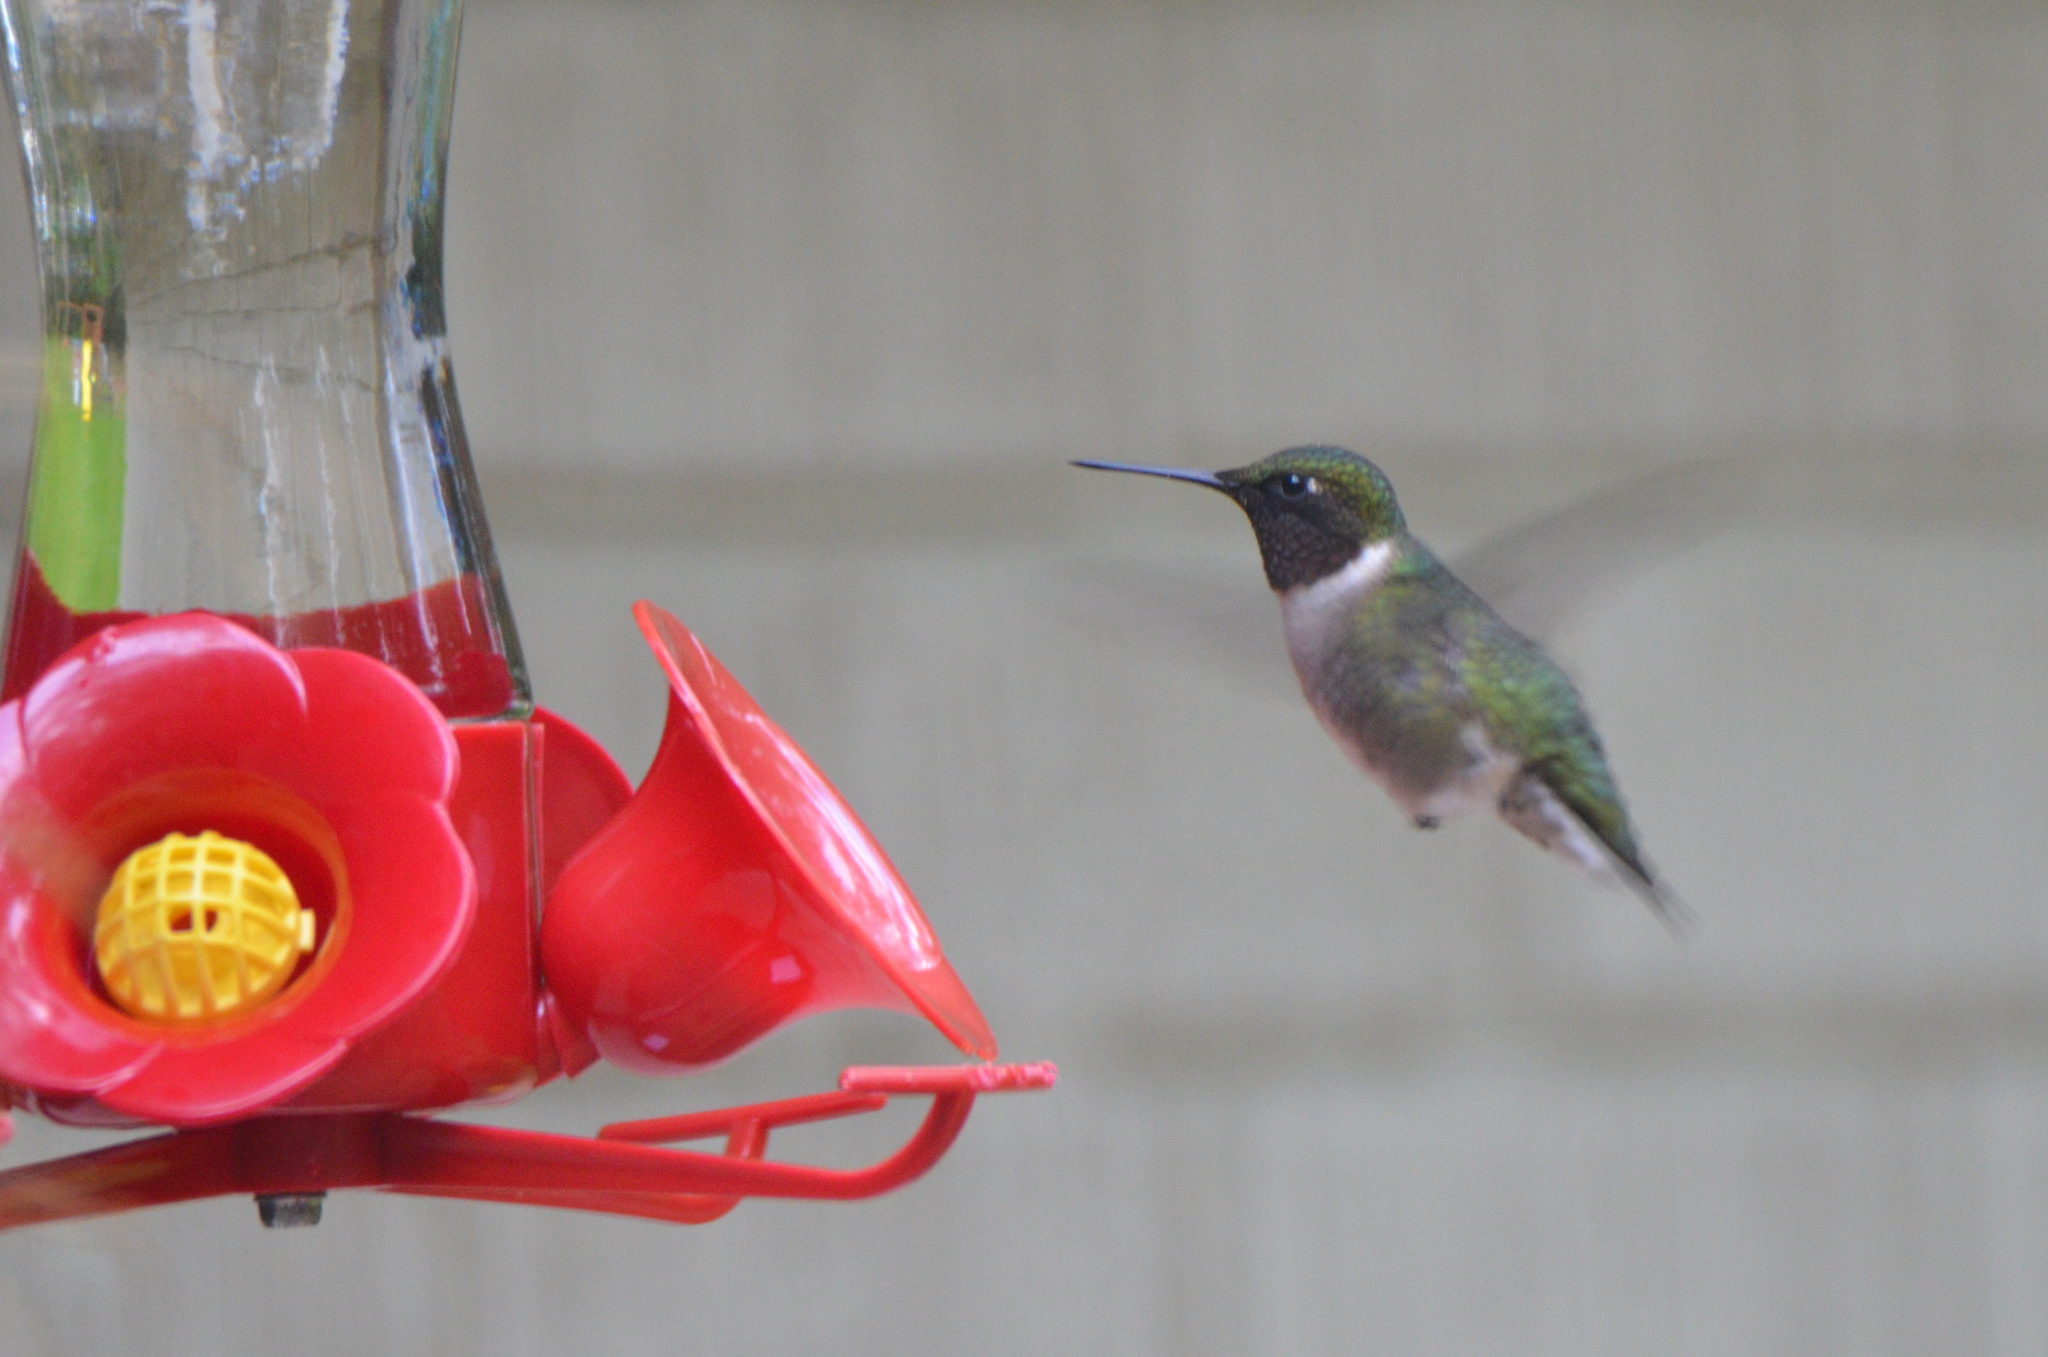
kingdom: Animalia
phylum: Chordata
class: Aves
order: Apodiformes
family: Trochilidae
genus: Archilochus
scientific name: Archilochus colubris
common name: Ruby-throated hummingbird
